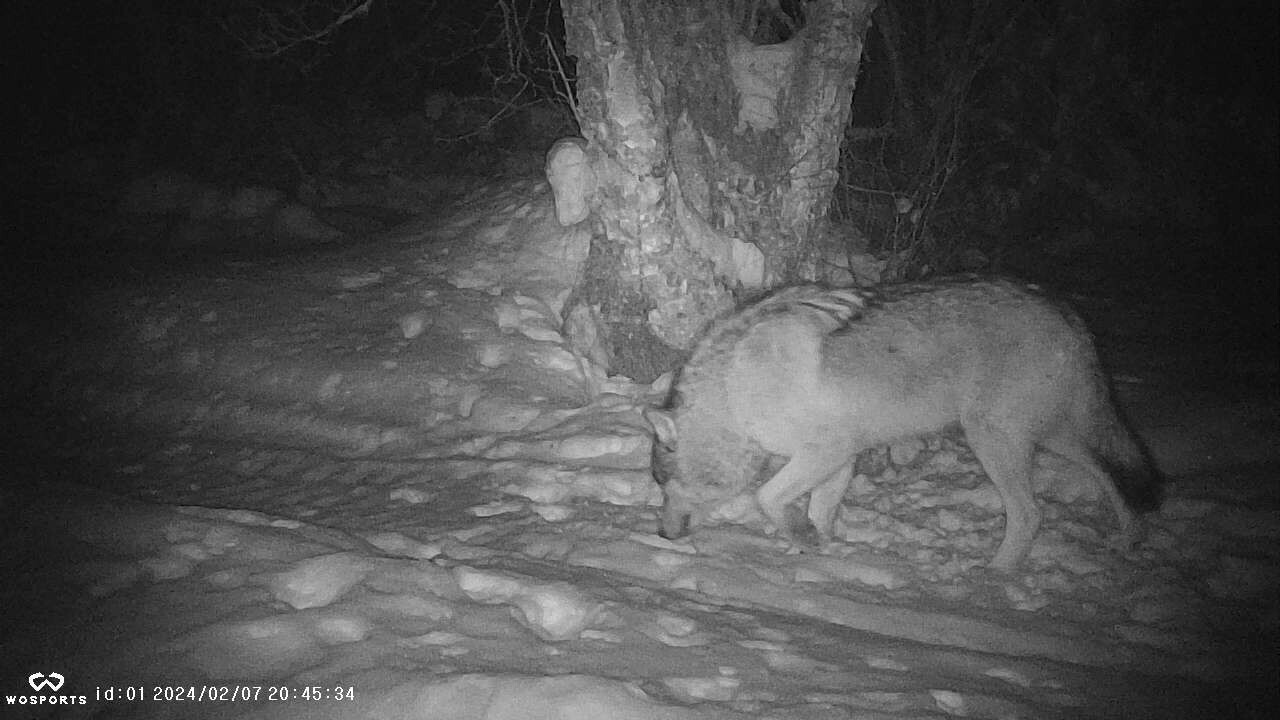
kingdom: Animalia
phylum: Chordata
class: Mammalia
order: Carnivora
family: Canidae
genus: Canis
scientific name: Canis lupus
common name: Gray wolf
